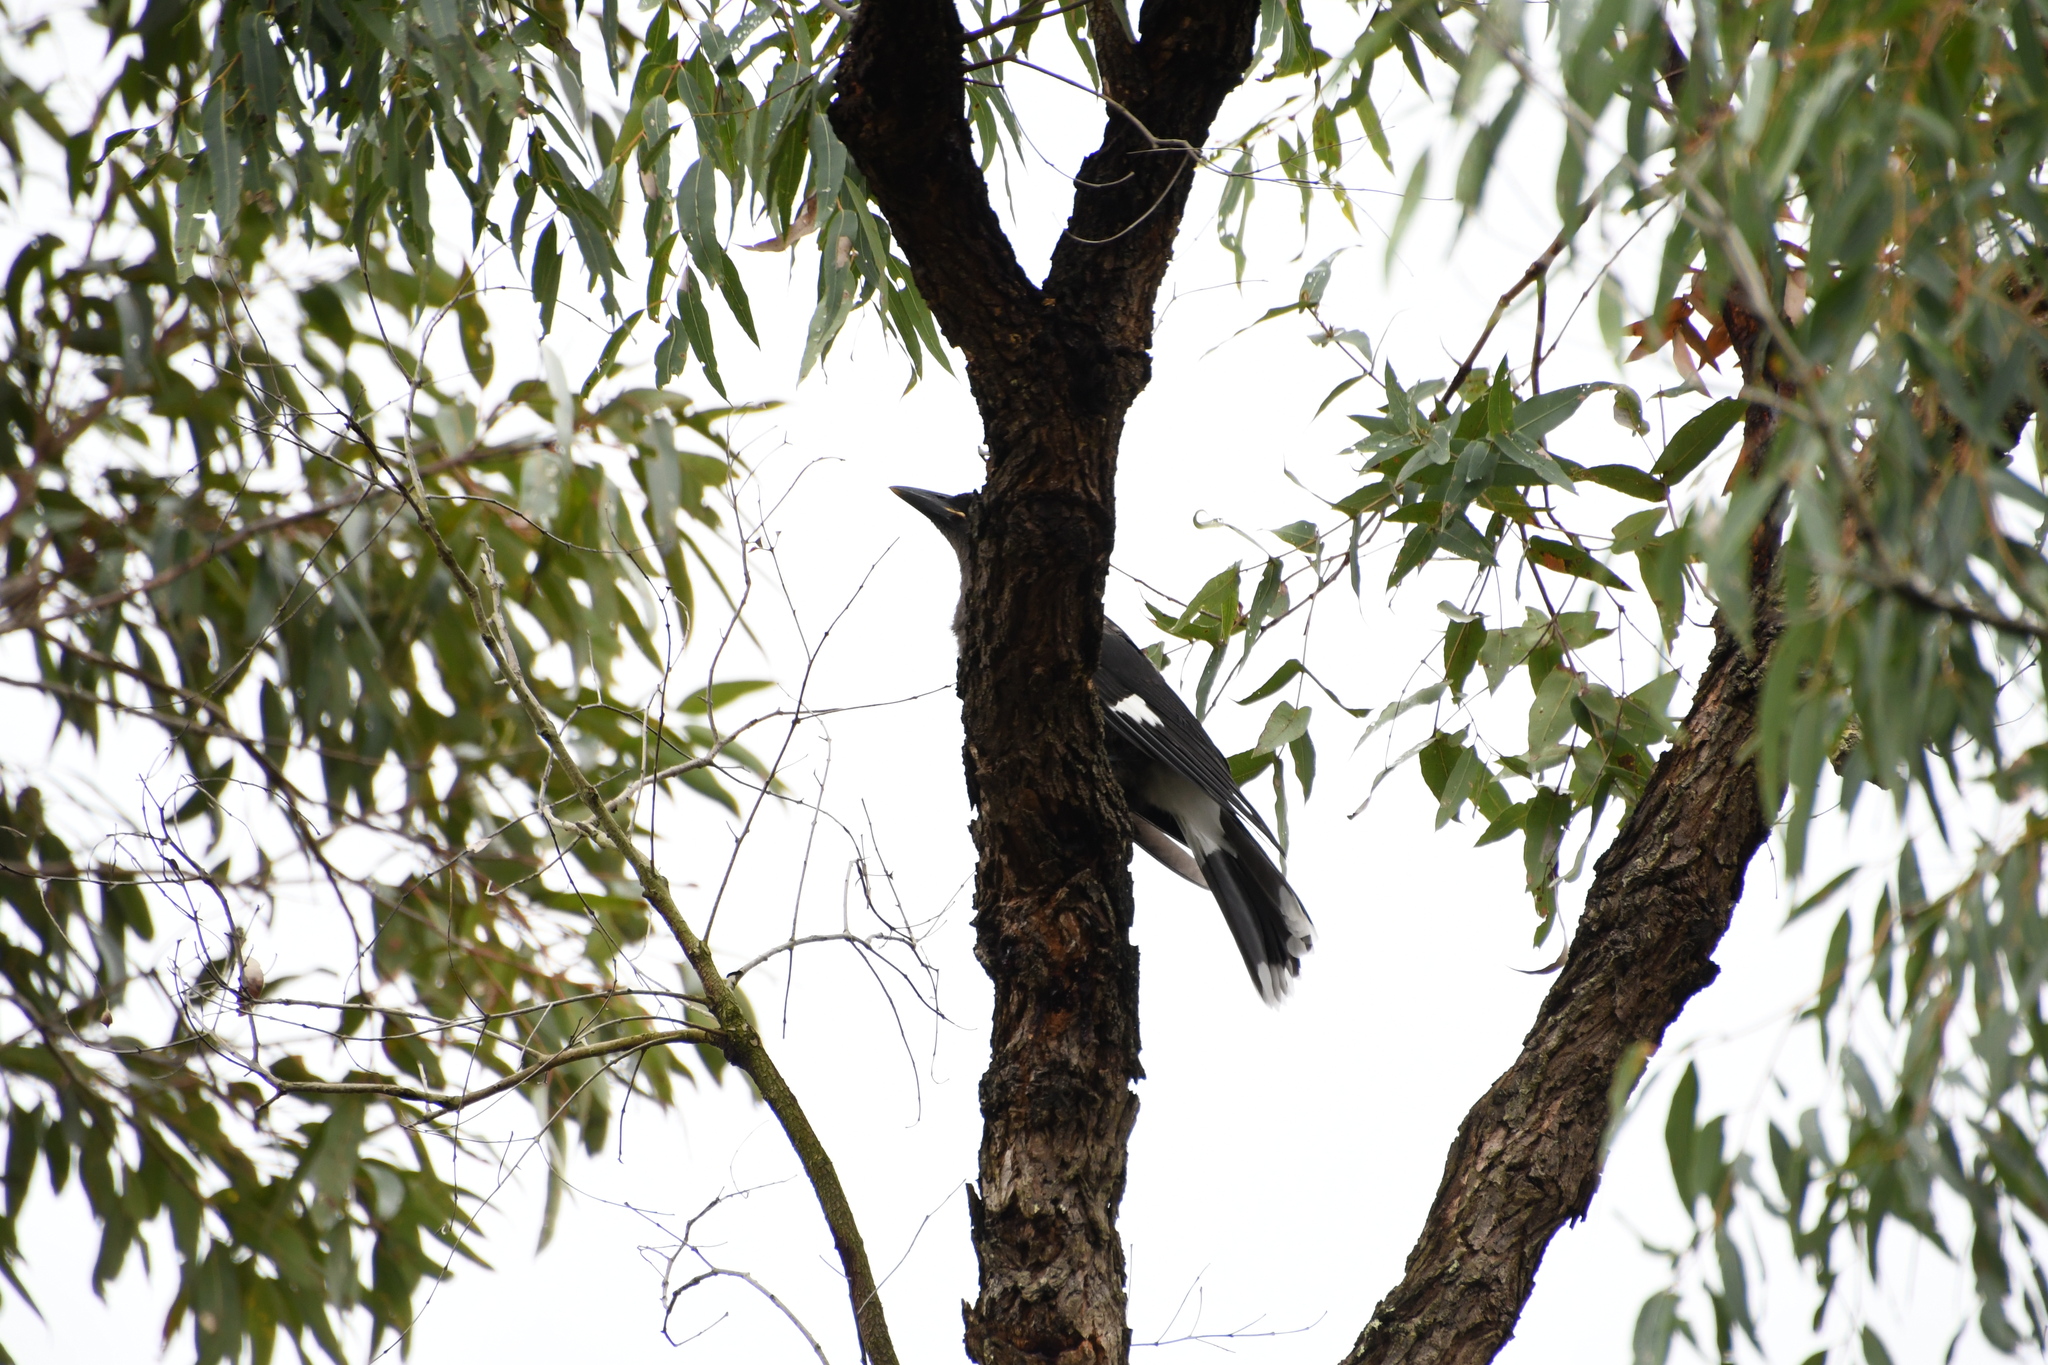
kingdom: Animalia
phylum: Chordata
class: Aves
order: Passeriformes
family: Cracticidae
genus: Strepera
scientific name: Strepera graculina
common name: Pied currawong
